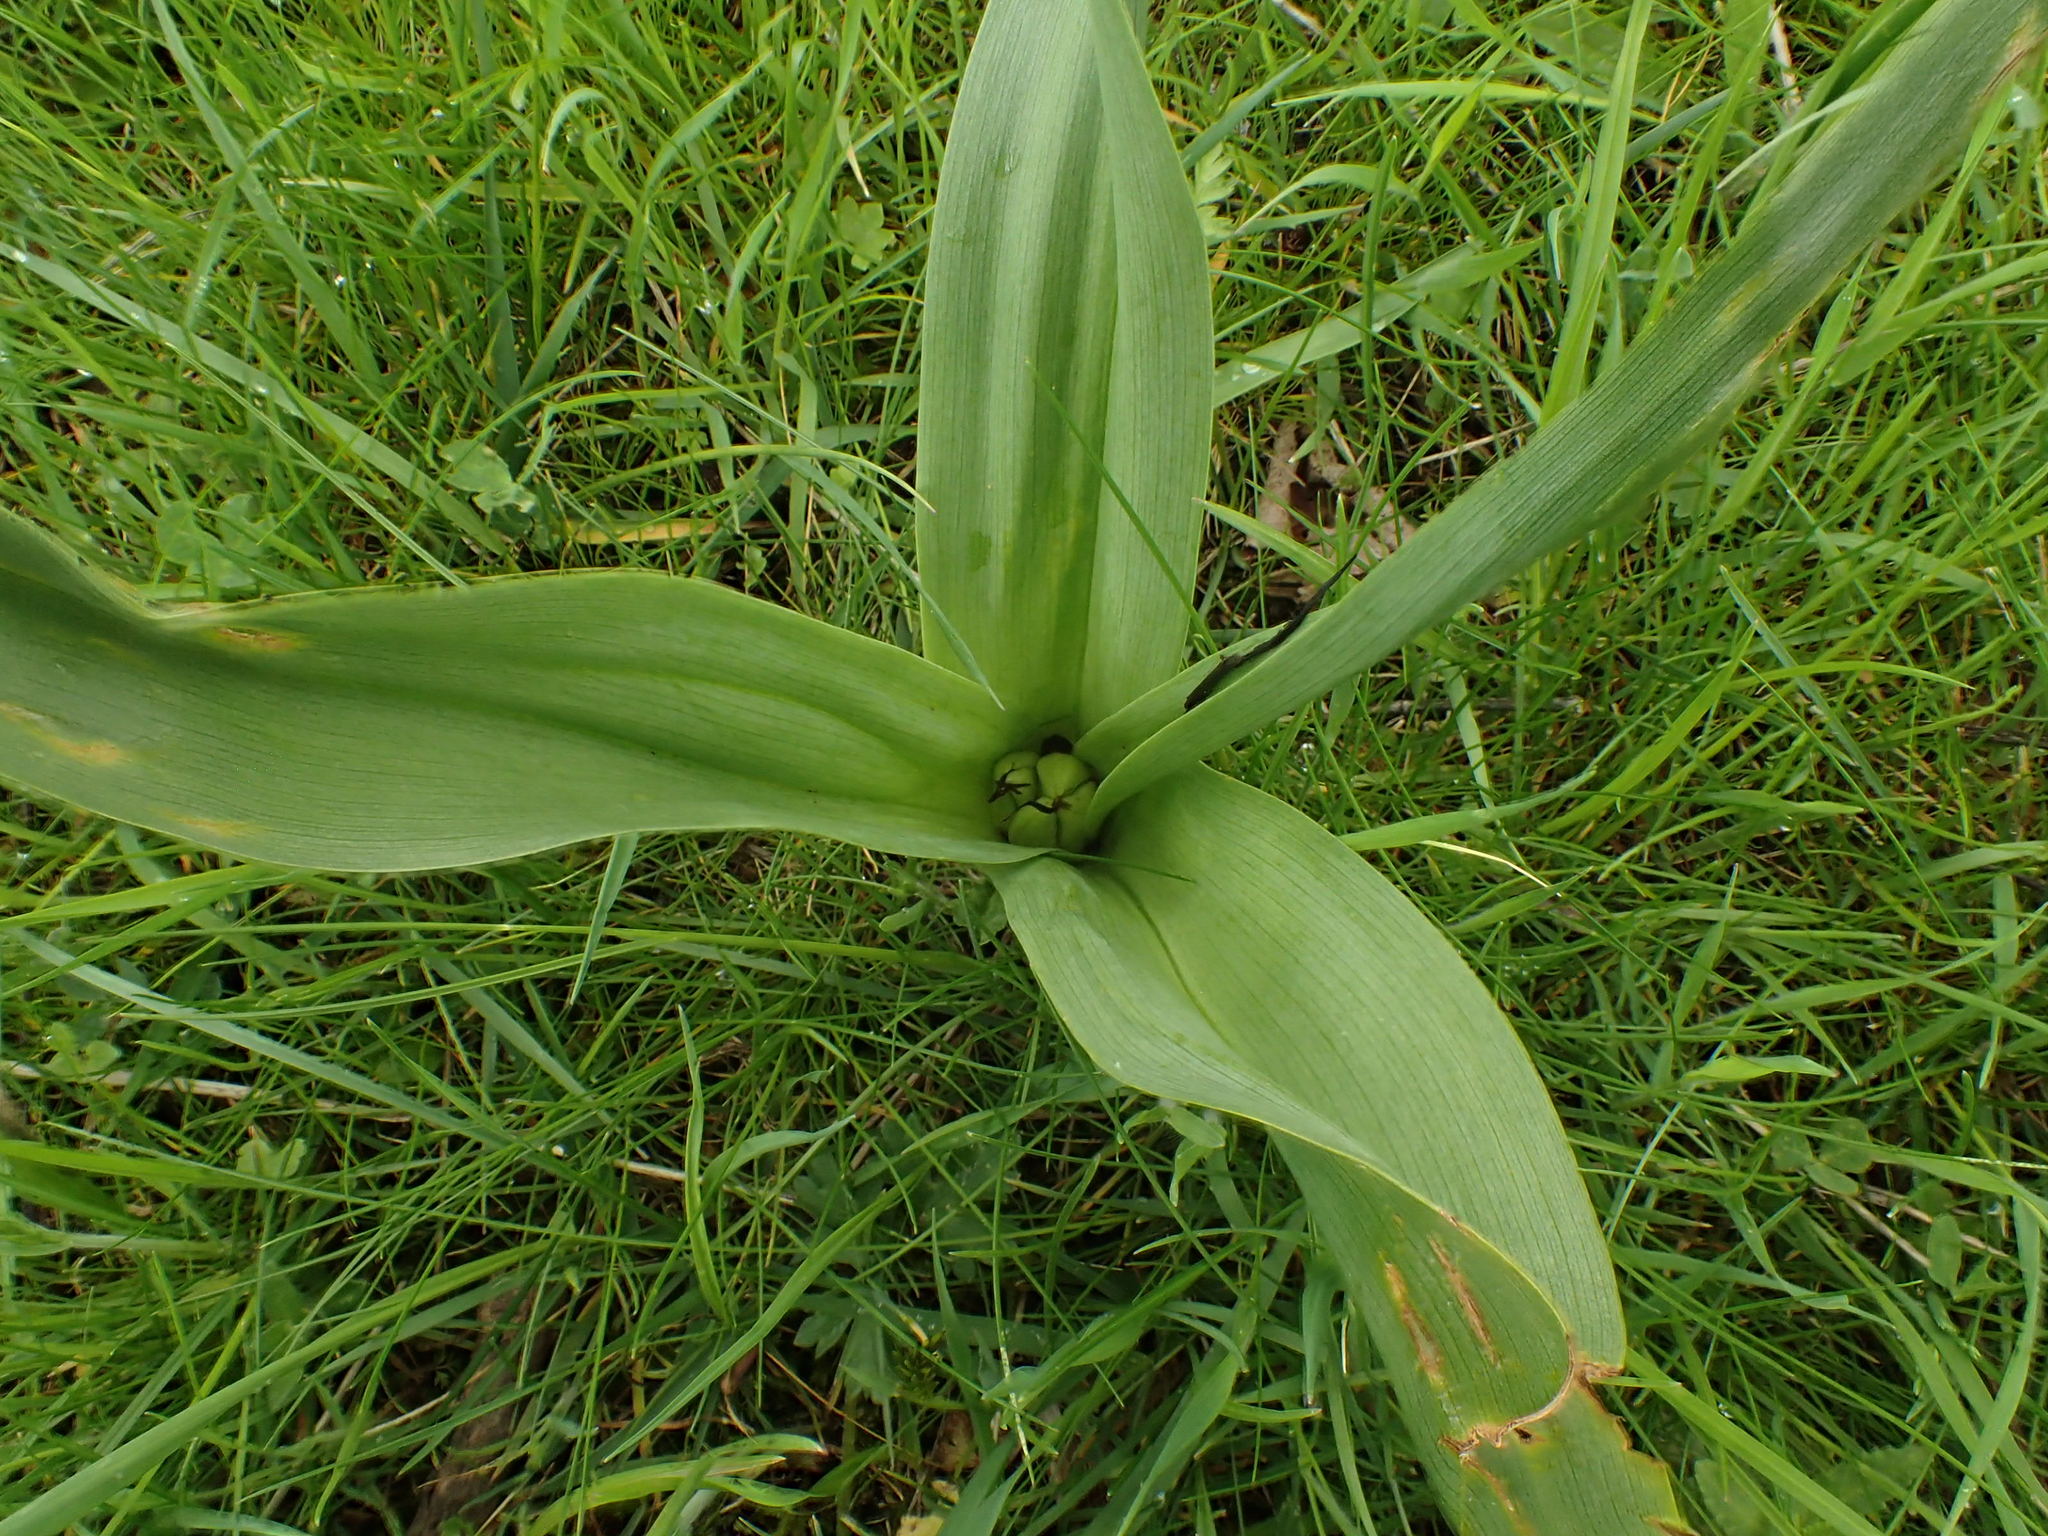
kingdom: Plantae
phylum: Tracheophyta
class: Liliopsida
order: Liliales
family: Colchicaceae
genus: Colchicum
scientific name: Colchicum autumnale
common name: Autumn crocus
